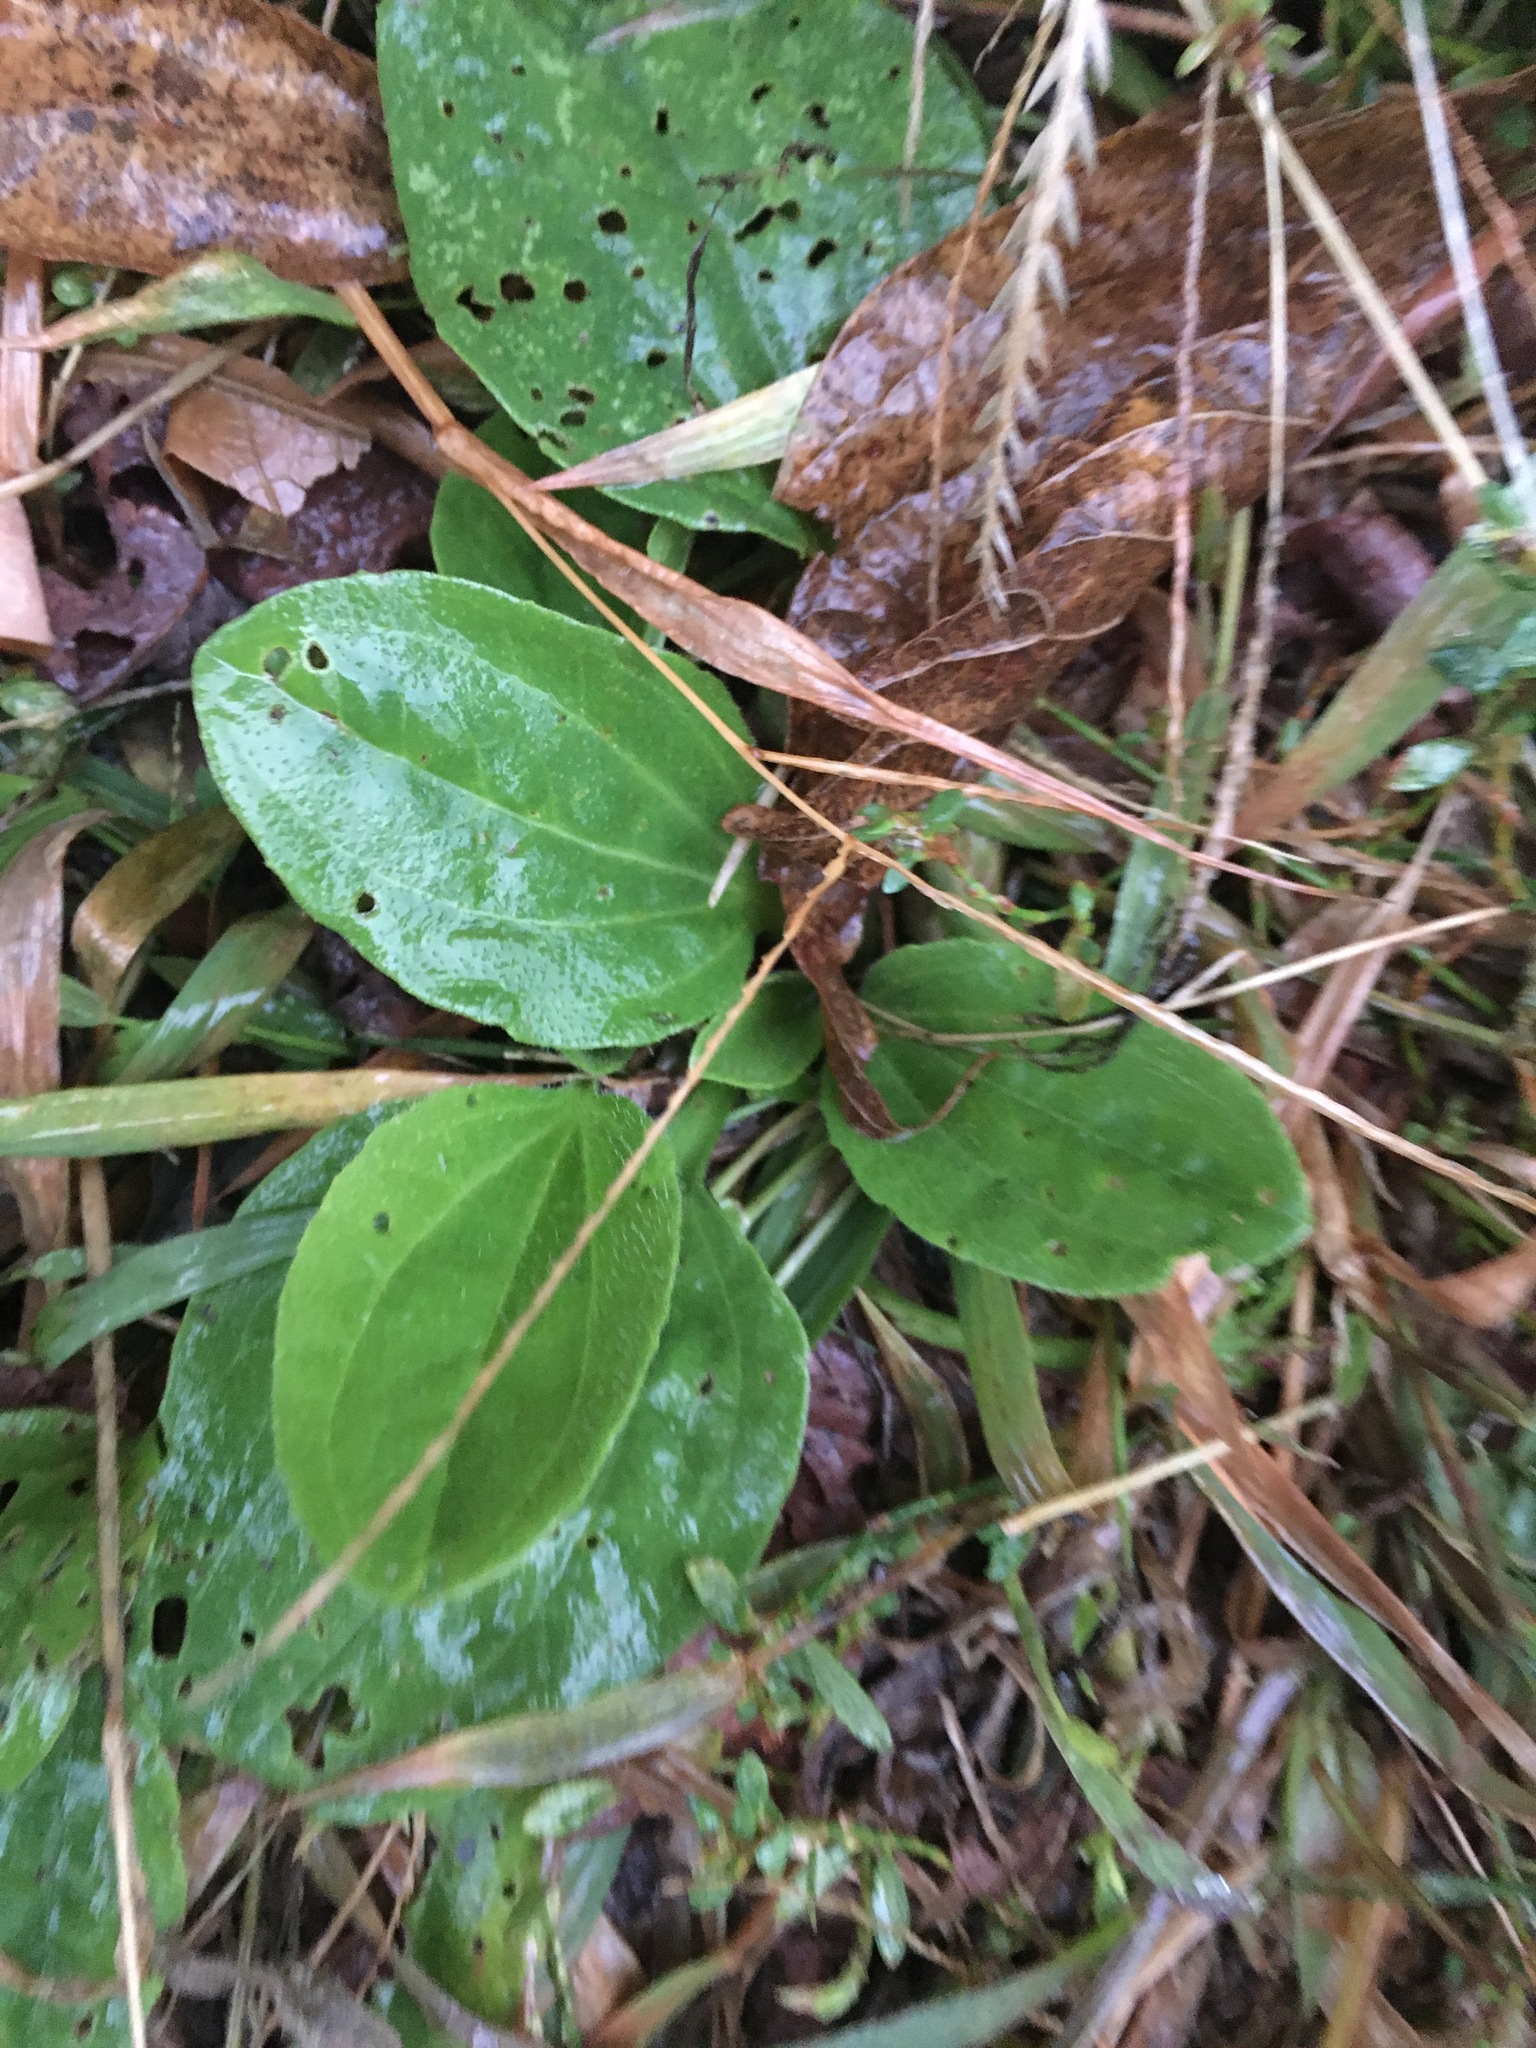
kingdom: Plantae
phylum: Tracheophyta
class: Magnoliopsida
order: Lamiales
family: Plantaginaceae
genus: Plantago
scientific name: Plantago major
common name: Common plantain
